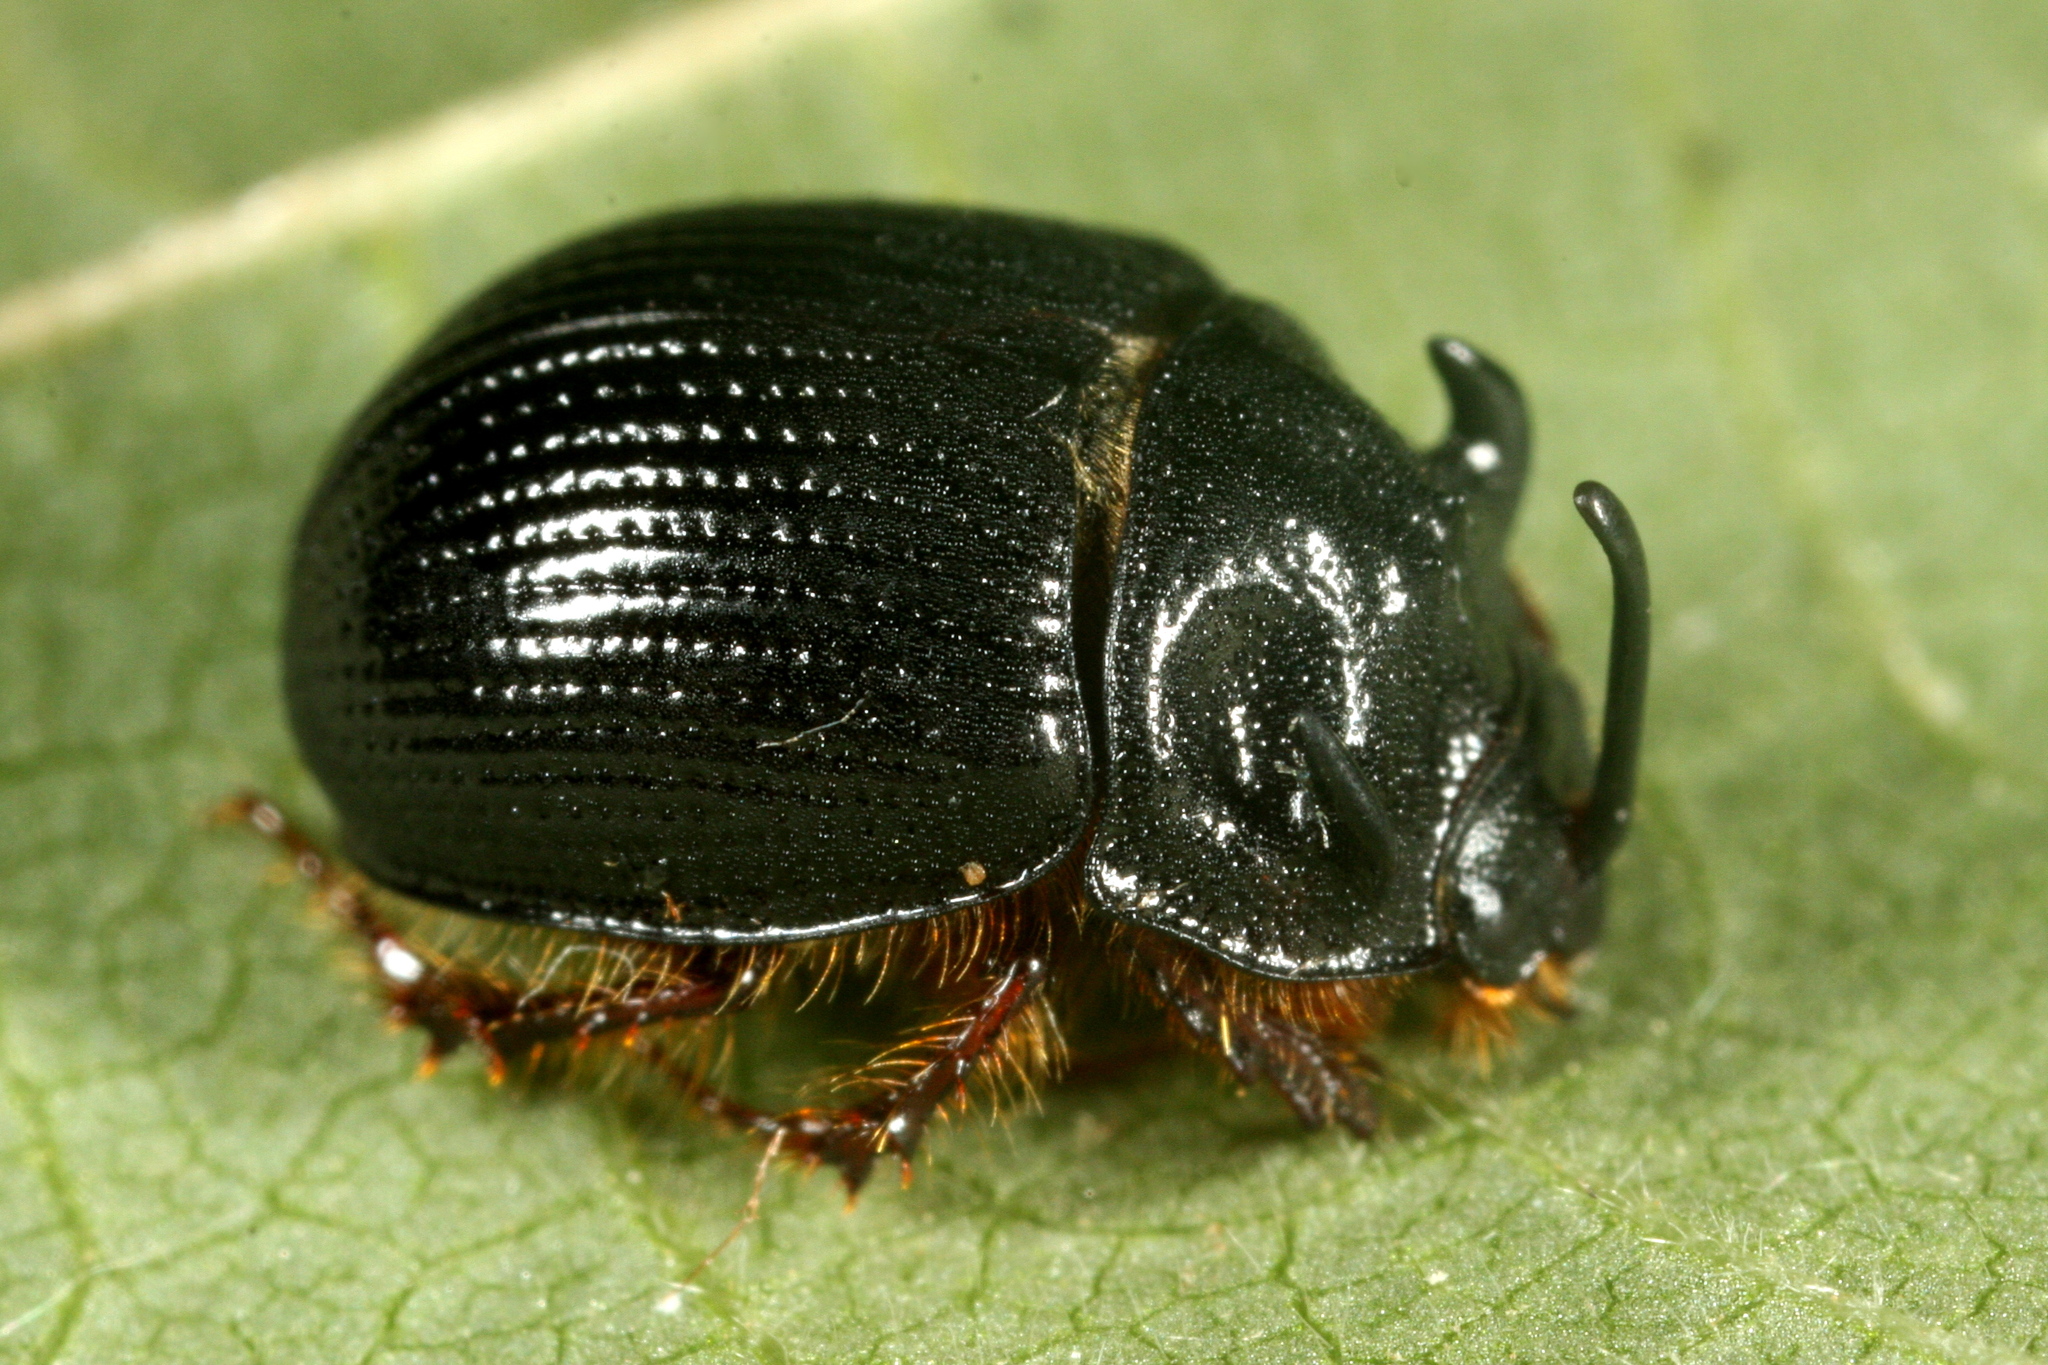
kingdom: Animalia
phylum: Arthropoda
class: Insecta
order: Coleoptera
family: Geotrupidae
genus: Odonteus
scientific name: Odonteus armiger
